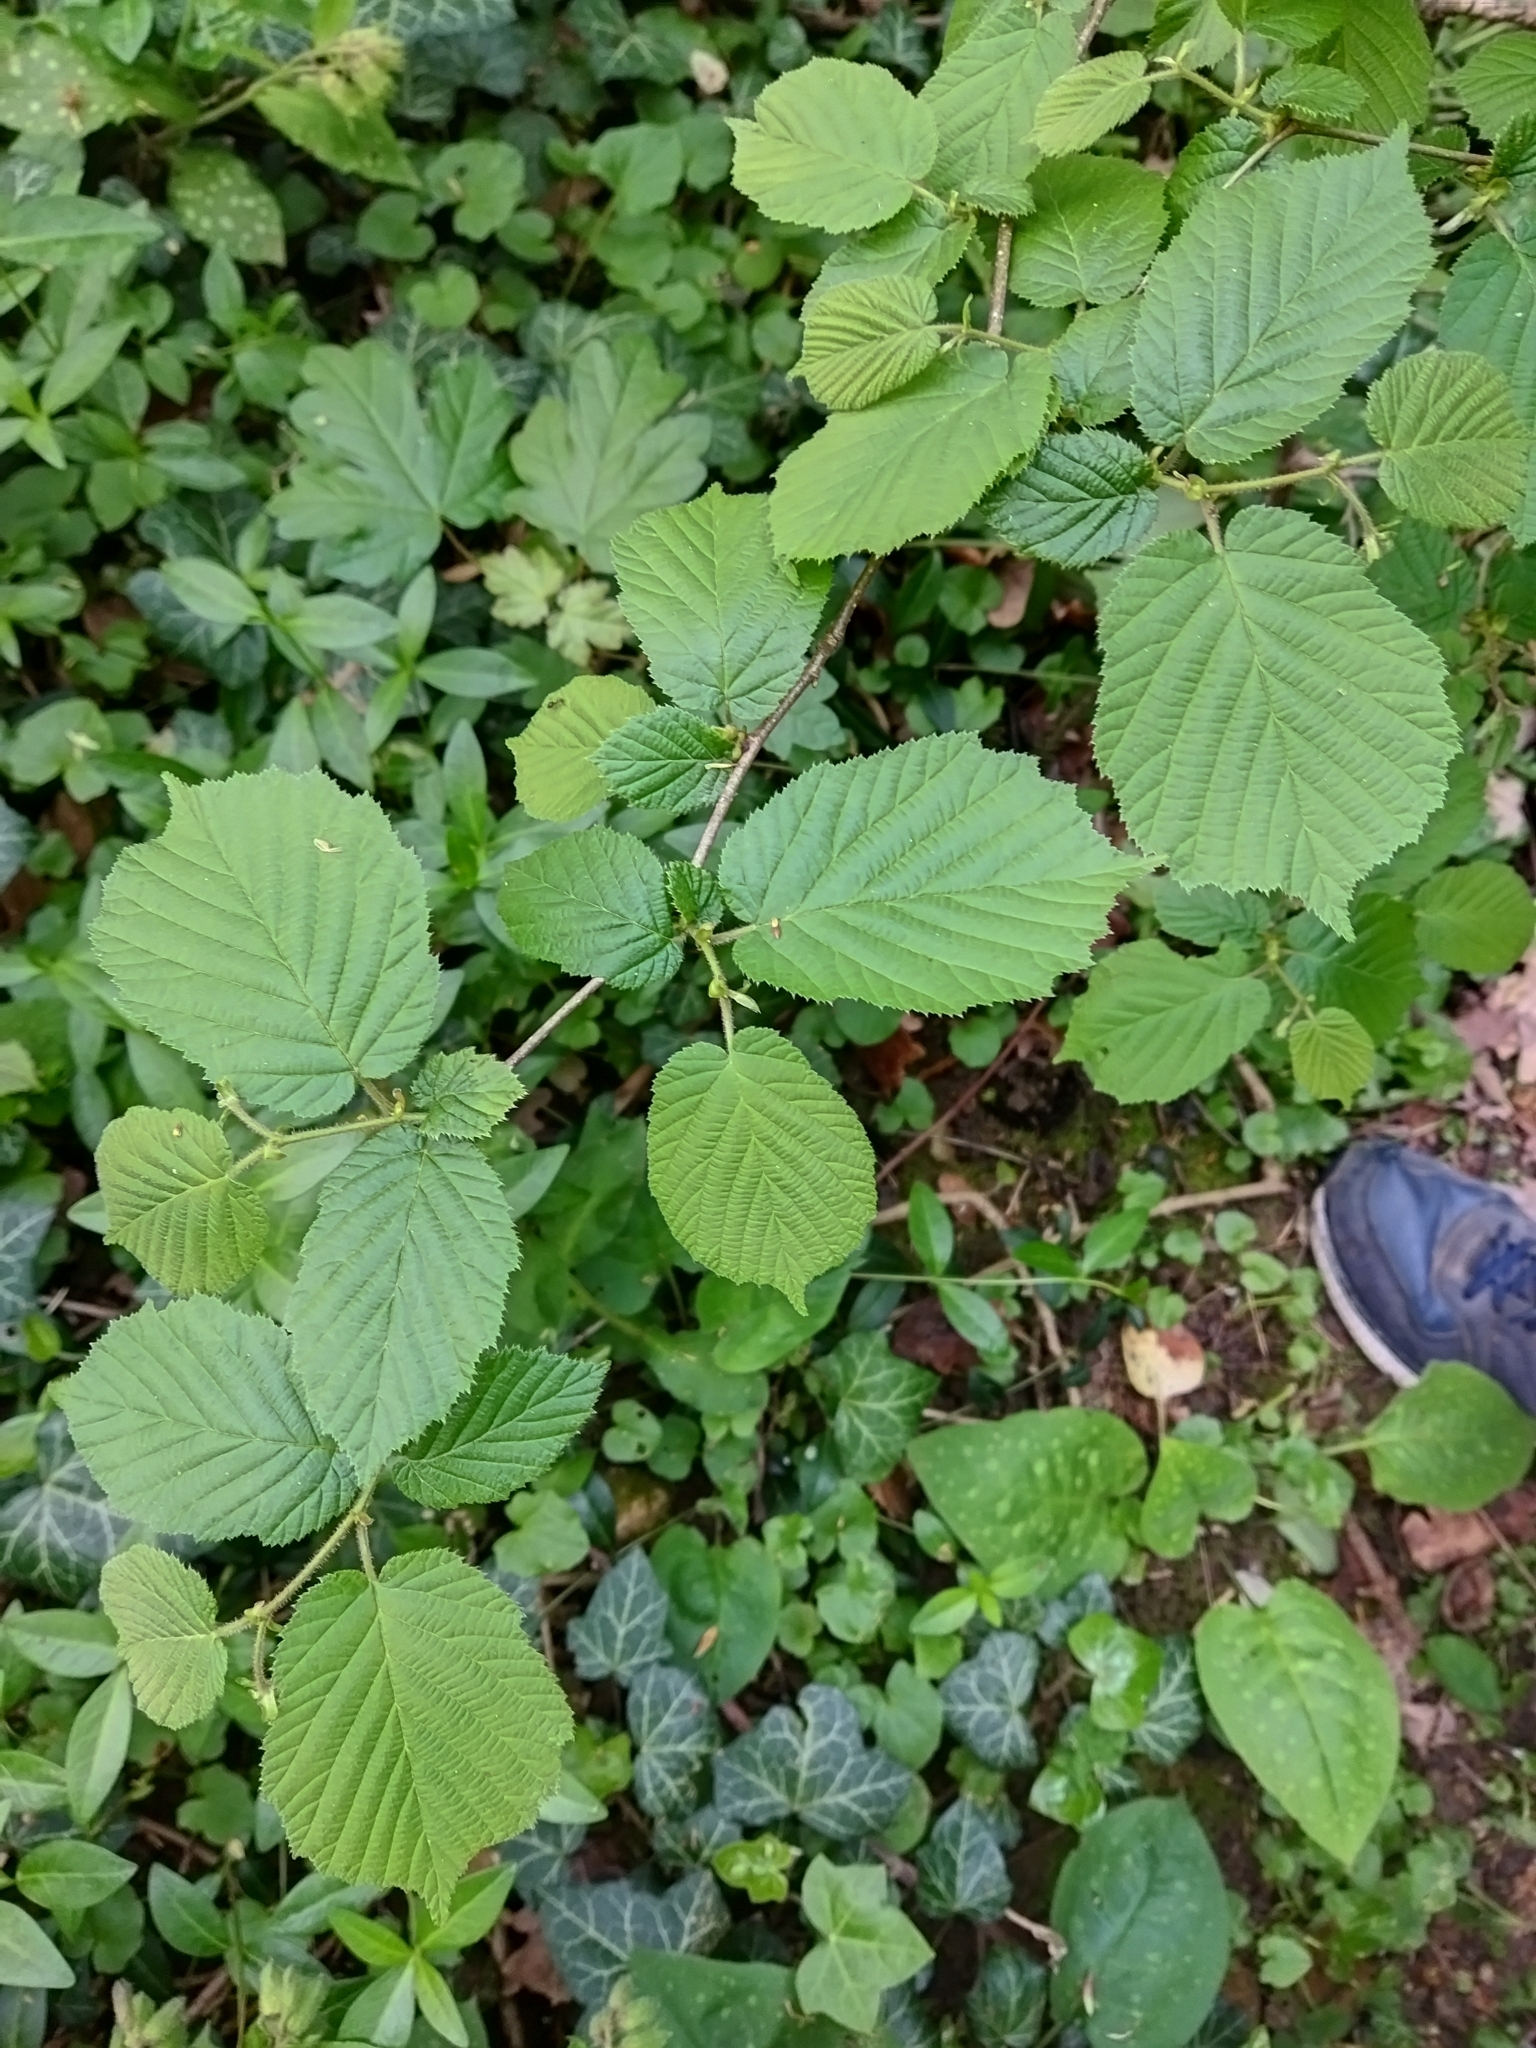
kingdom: Plantae
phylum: Tracheophyta
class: Magnoliopsida
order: Fagales
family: Betulaceae
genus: Corylus
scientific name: Corylus avellana
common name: European hazel
